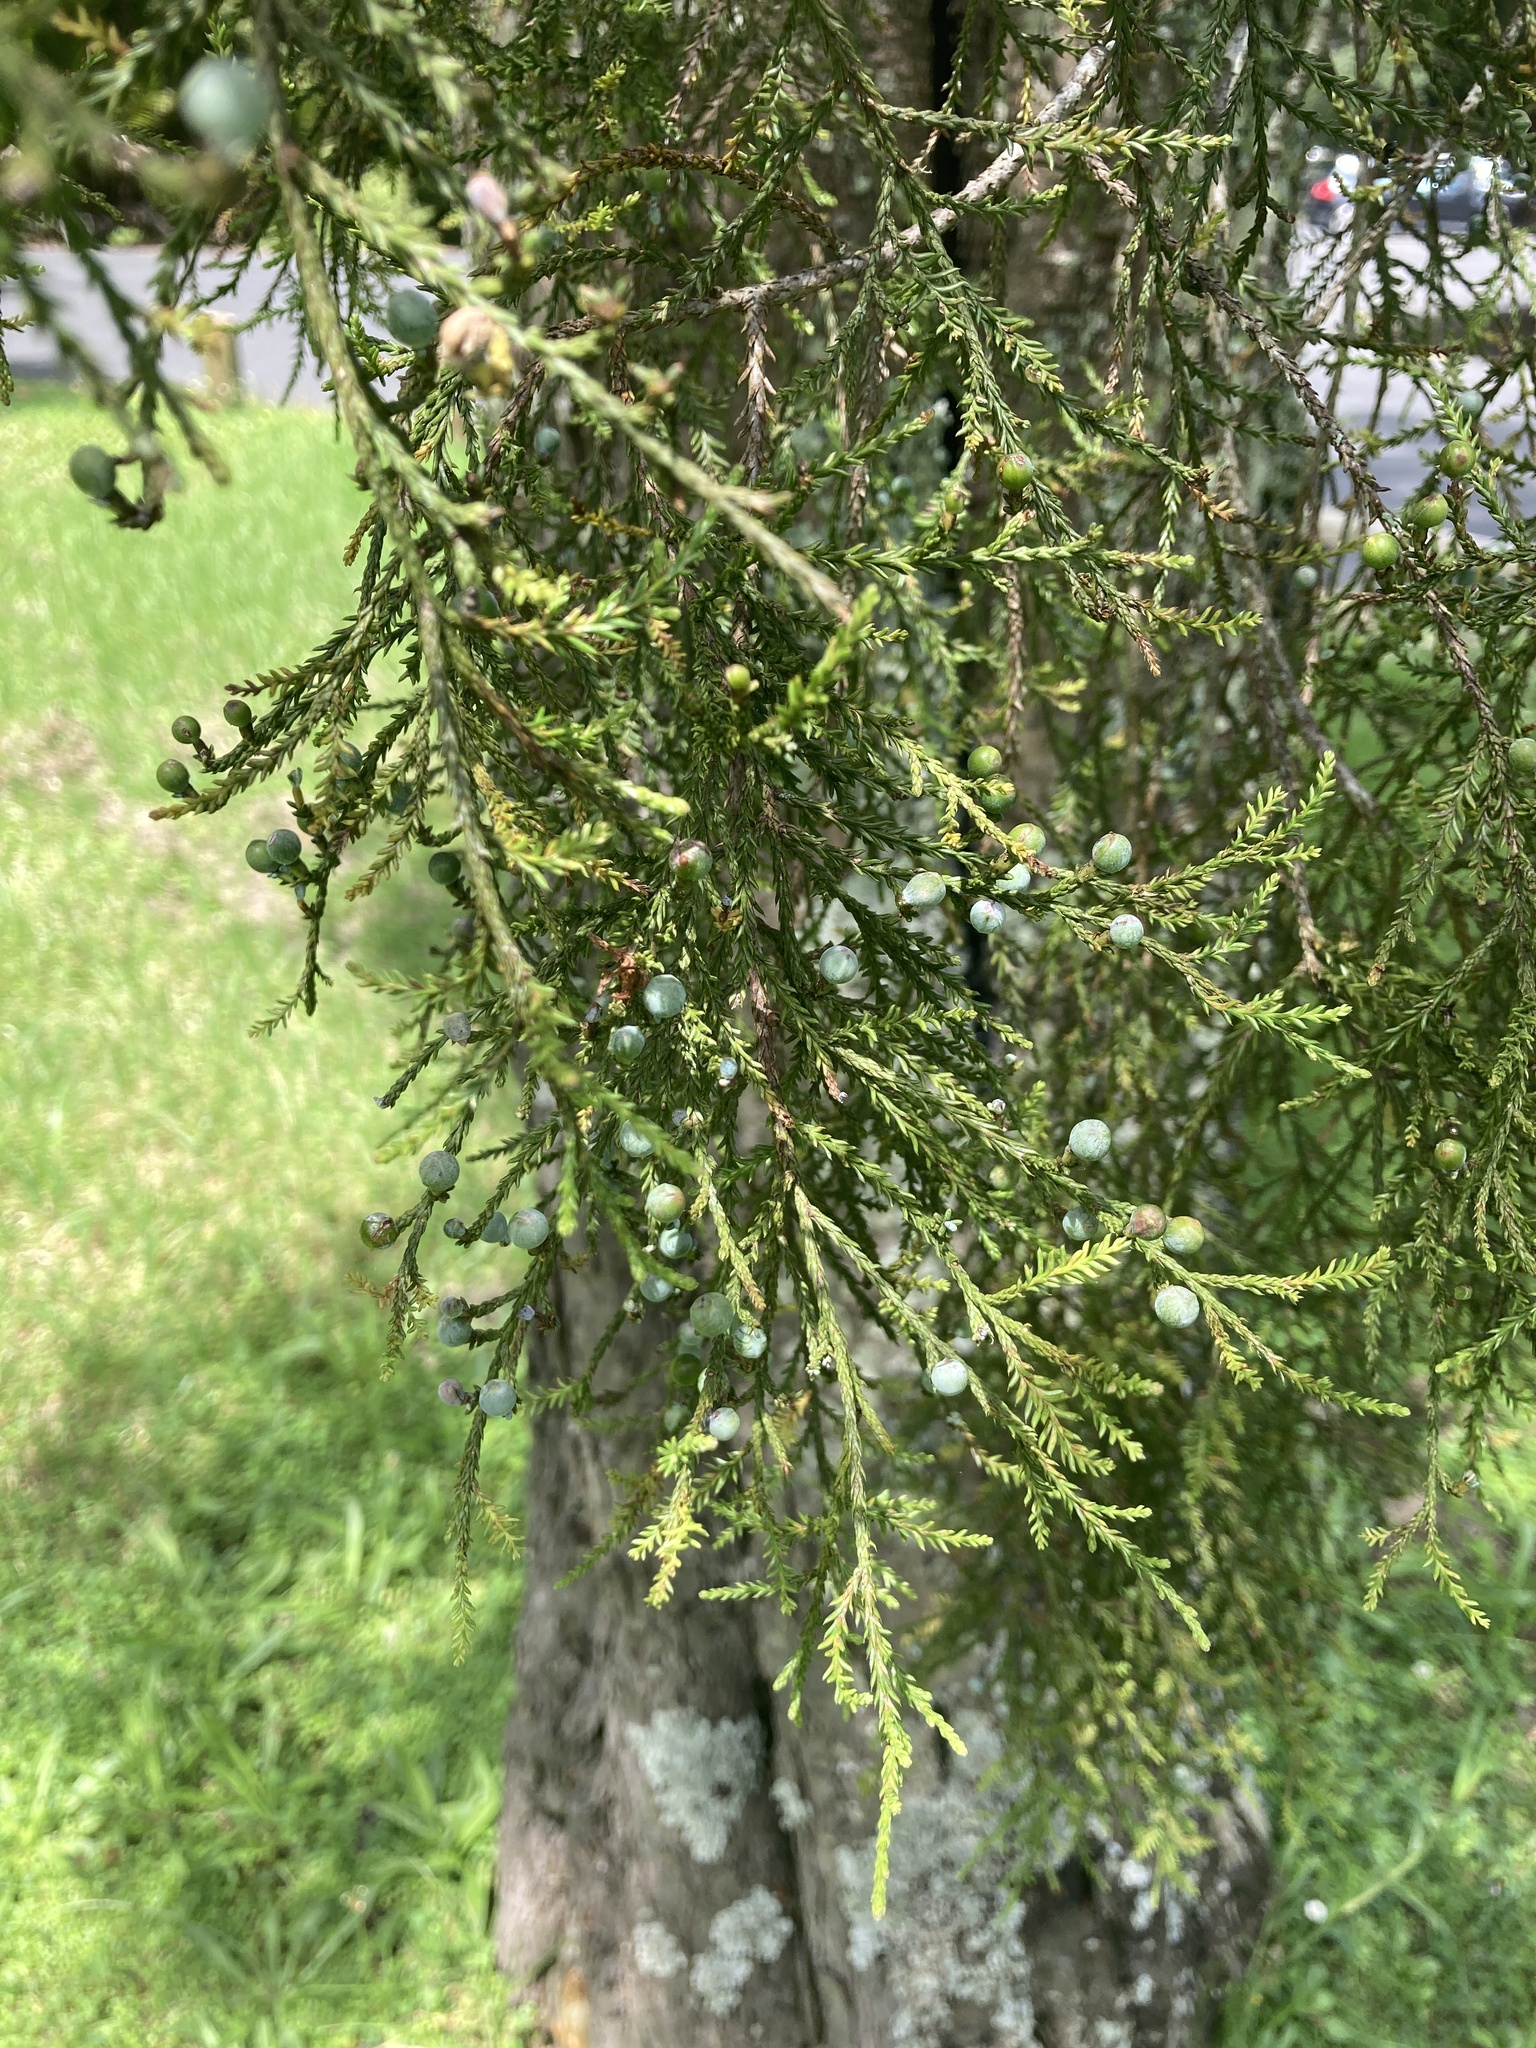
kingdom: Plantae
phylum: Tracheophyta
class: Pinopsida
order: Pinales
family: Podocarpaceae
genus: Dacrycarpus
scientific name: Dacrycarpus dacrydioides
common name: White pine
